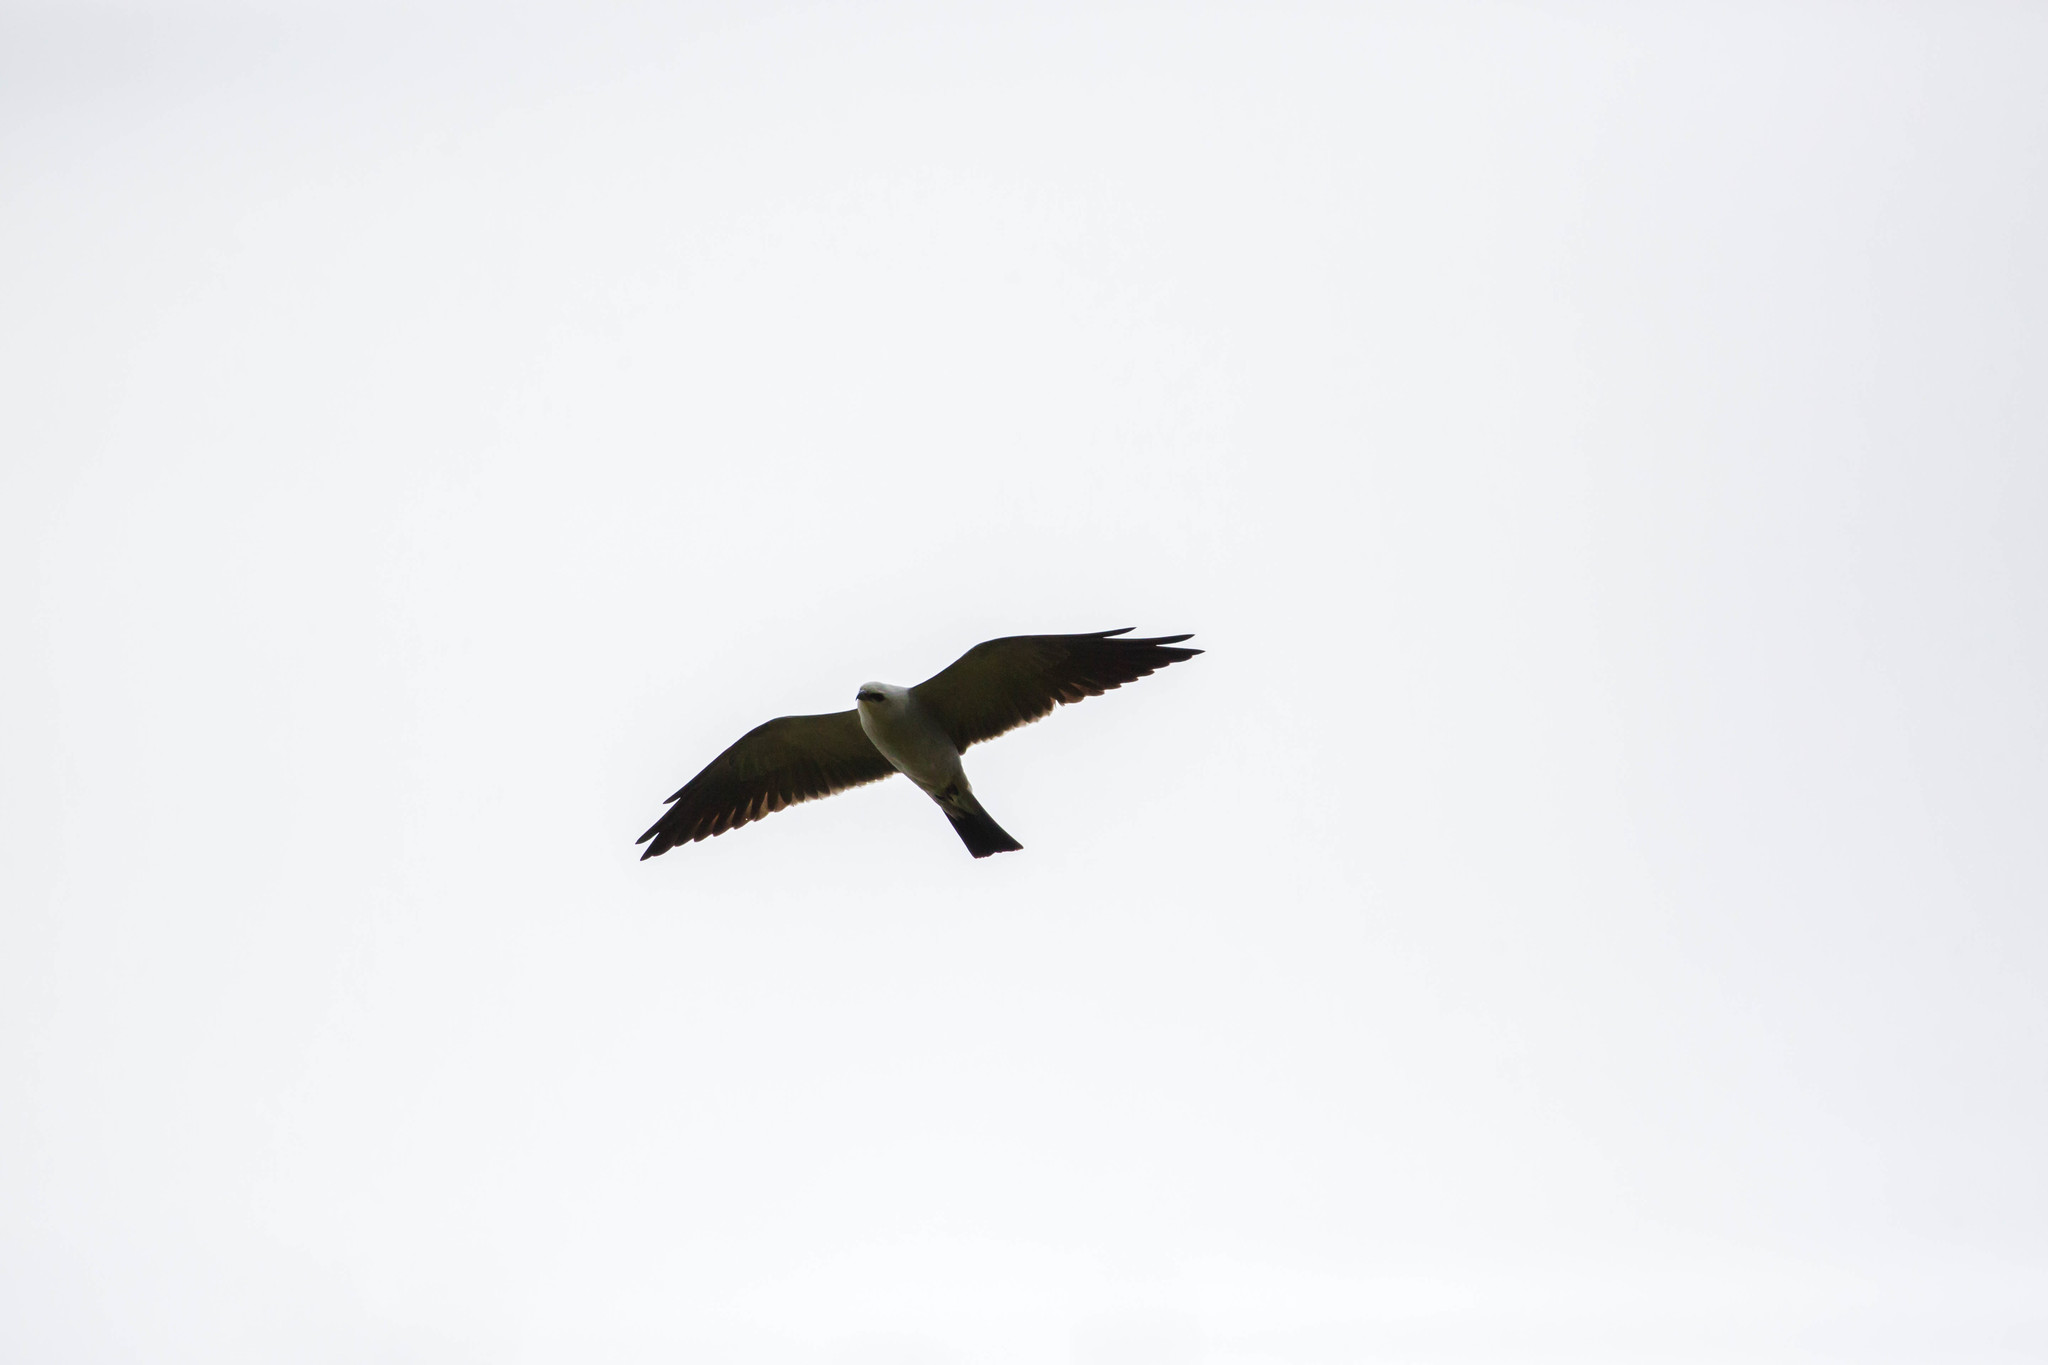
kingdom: Animalia
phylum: Chordata
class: Aves
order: Accipitriformes
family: Accipitridae
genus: Ictinia
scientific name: Ictinia mississippiensis
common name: Mississippi kite
